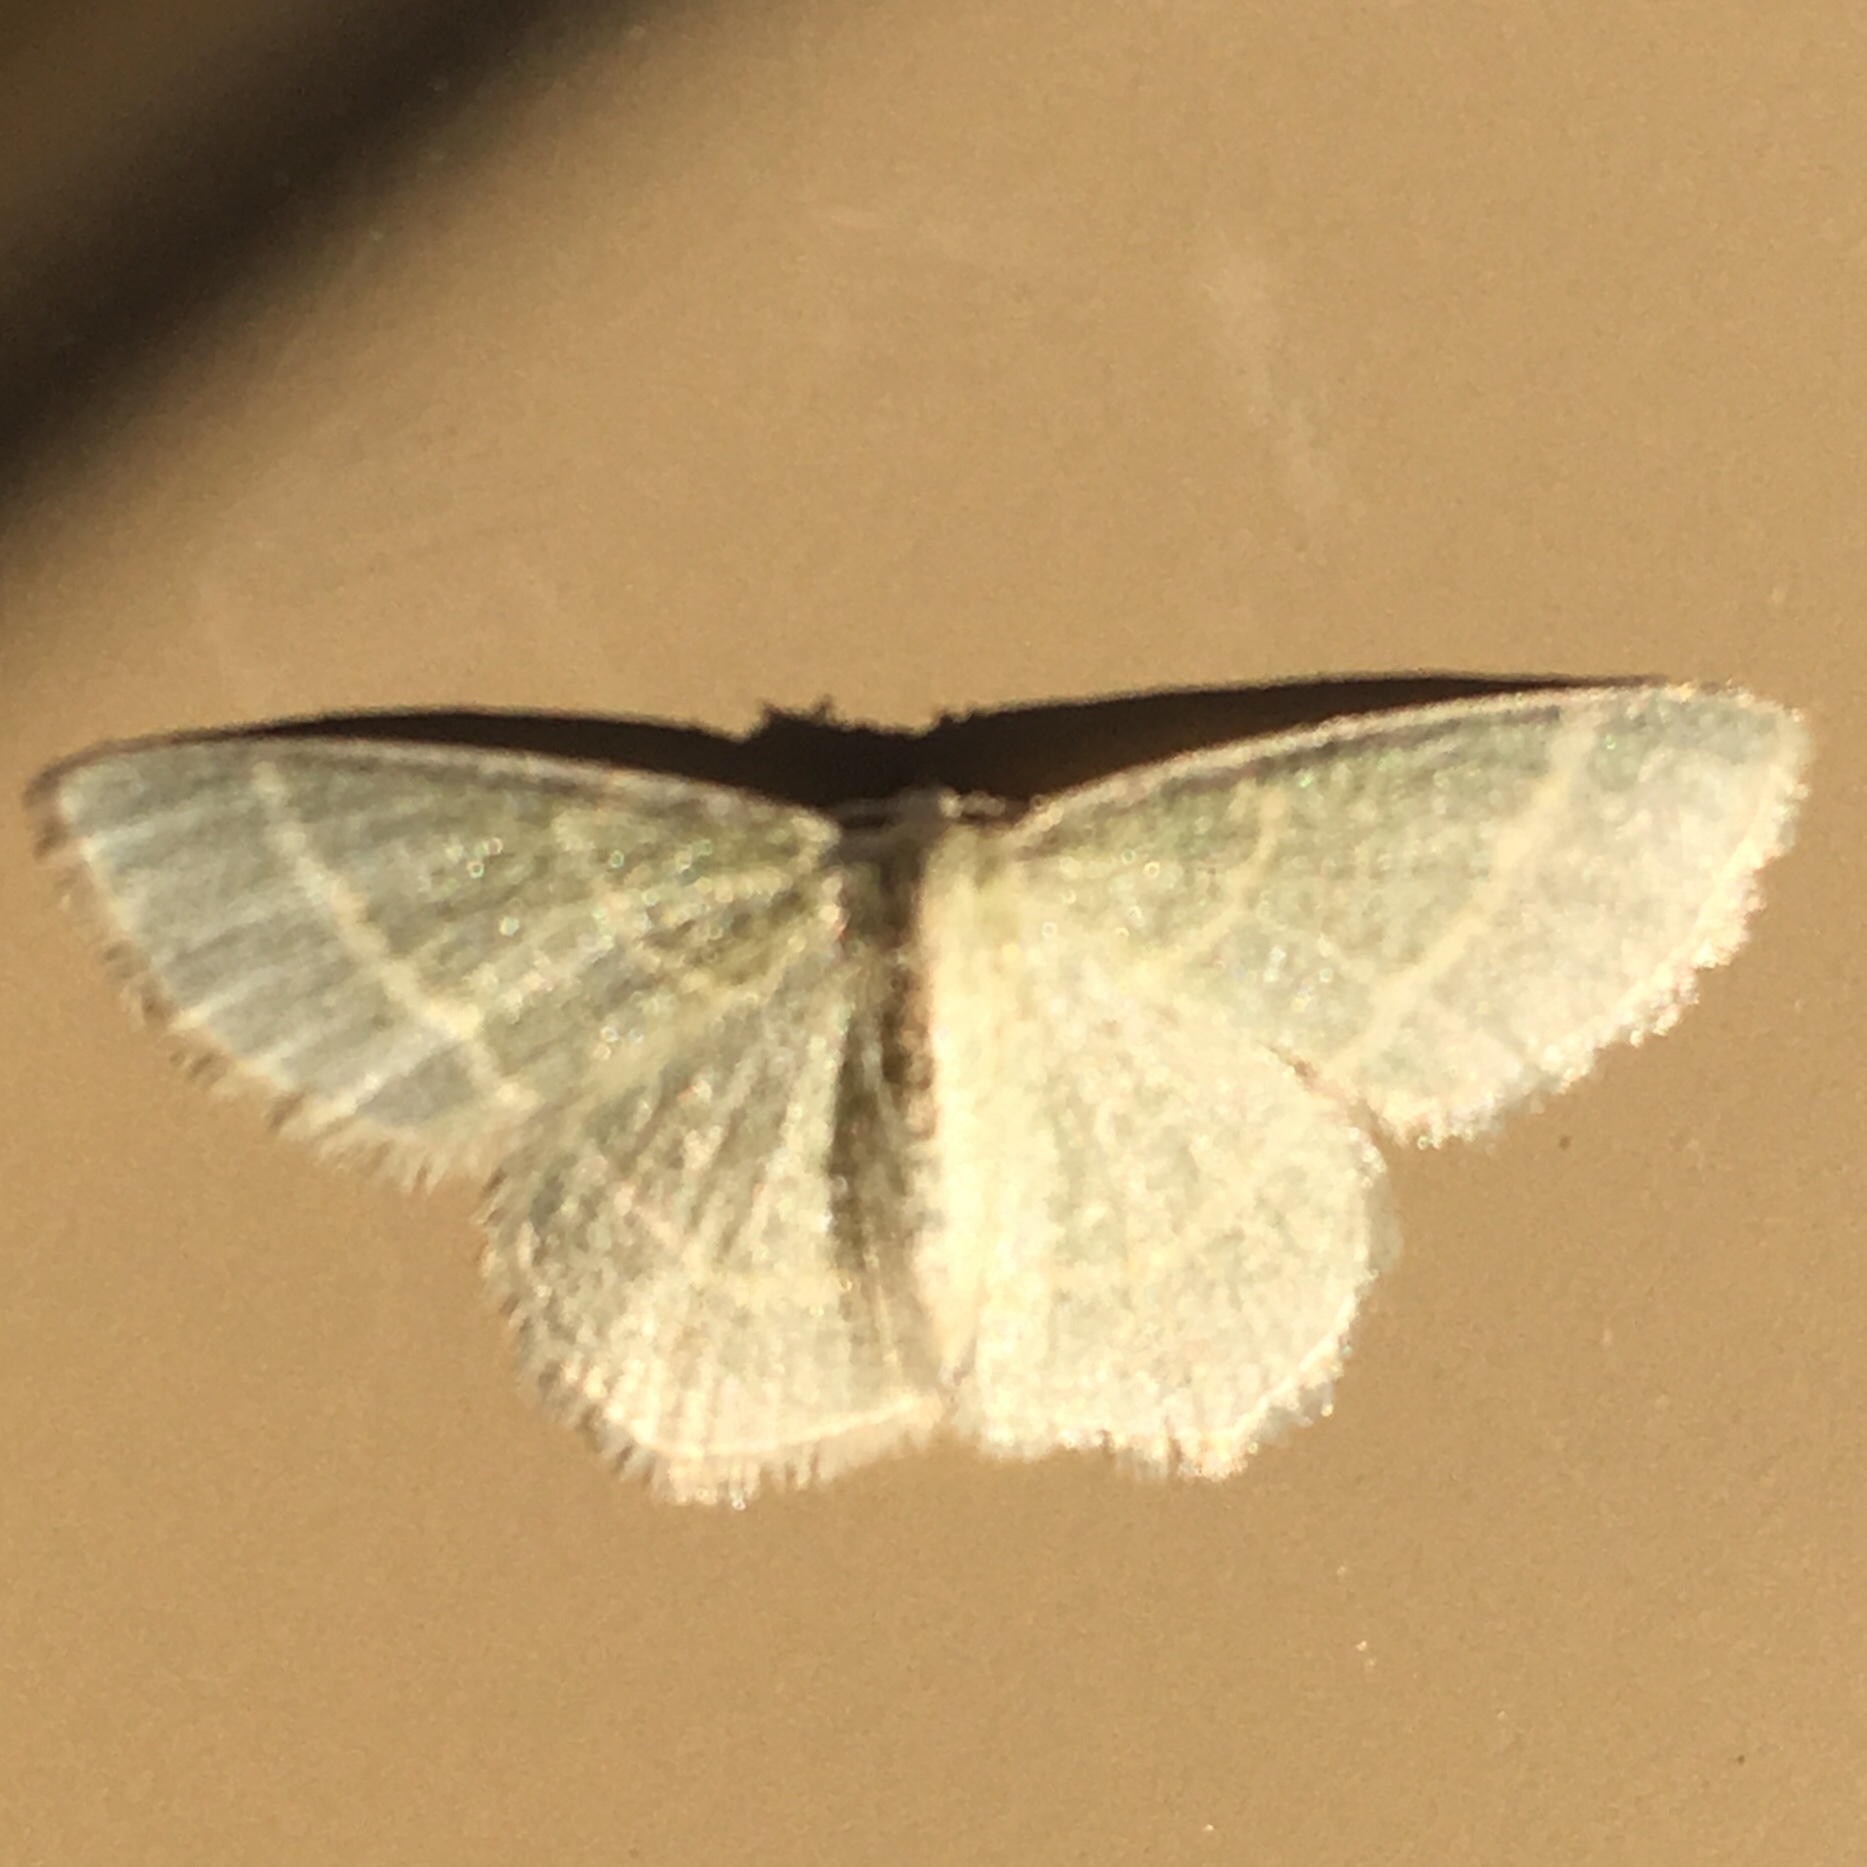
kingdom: Animalia
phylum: Arthropoda
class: Insecta
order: Lepidoptera
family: Geometridae
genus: Chlorochlamys
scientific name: Chlorochlamys chloroleucaria
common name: Blackberry looper
